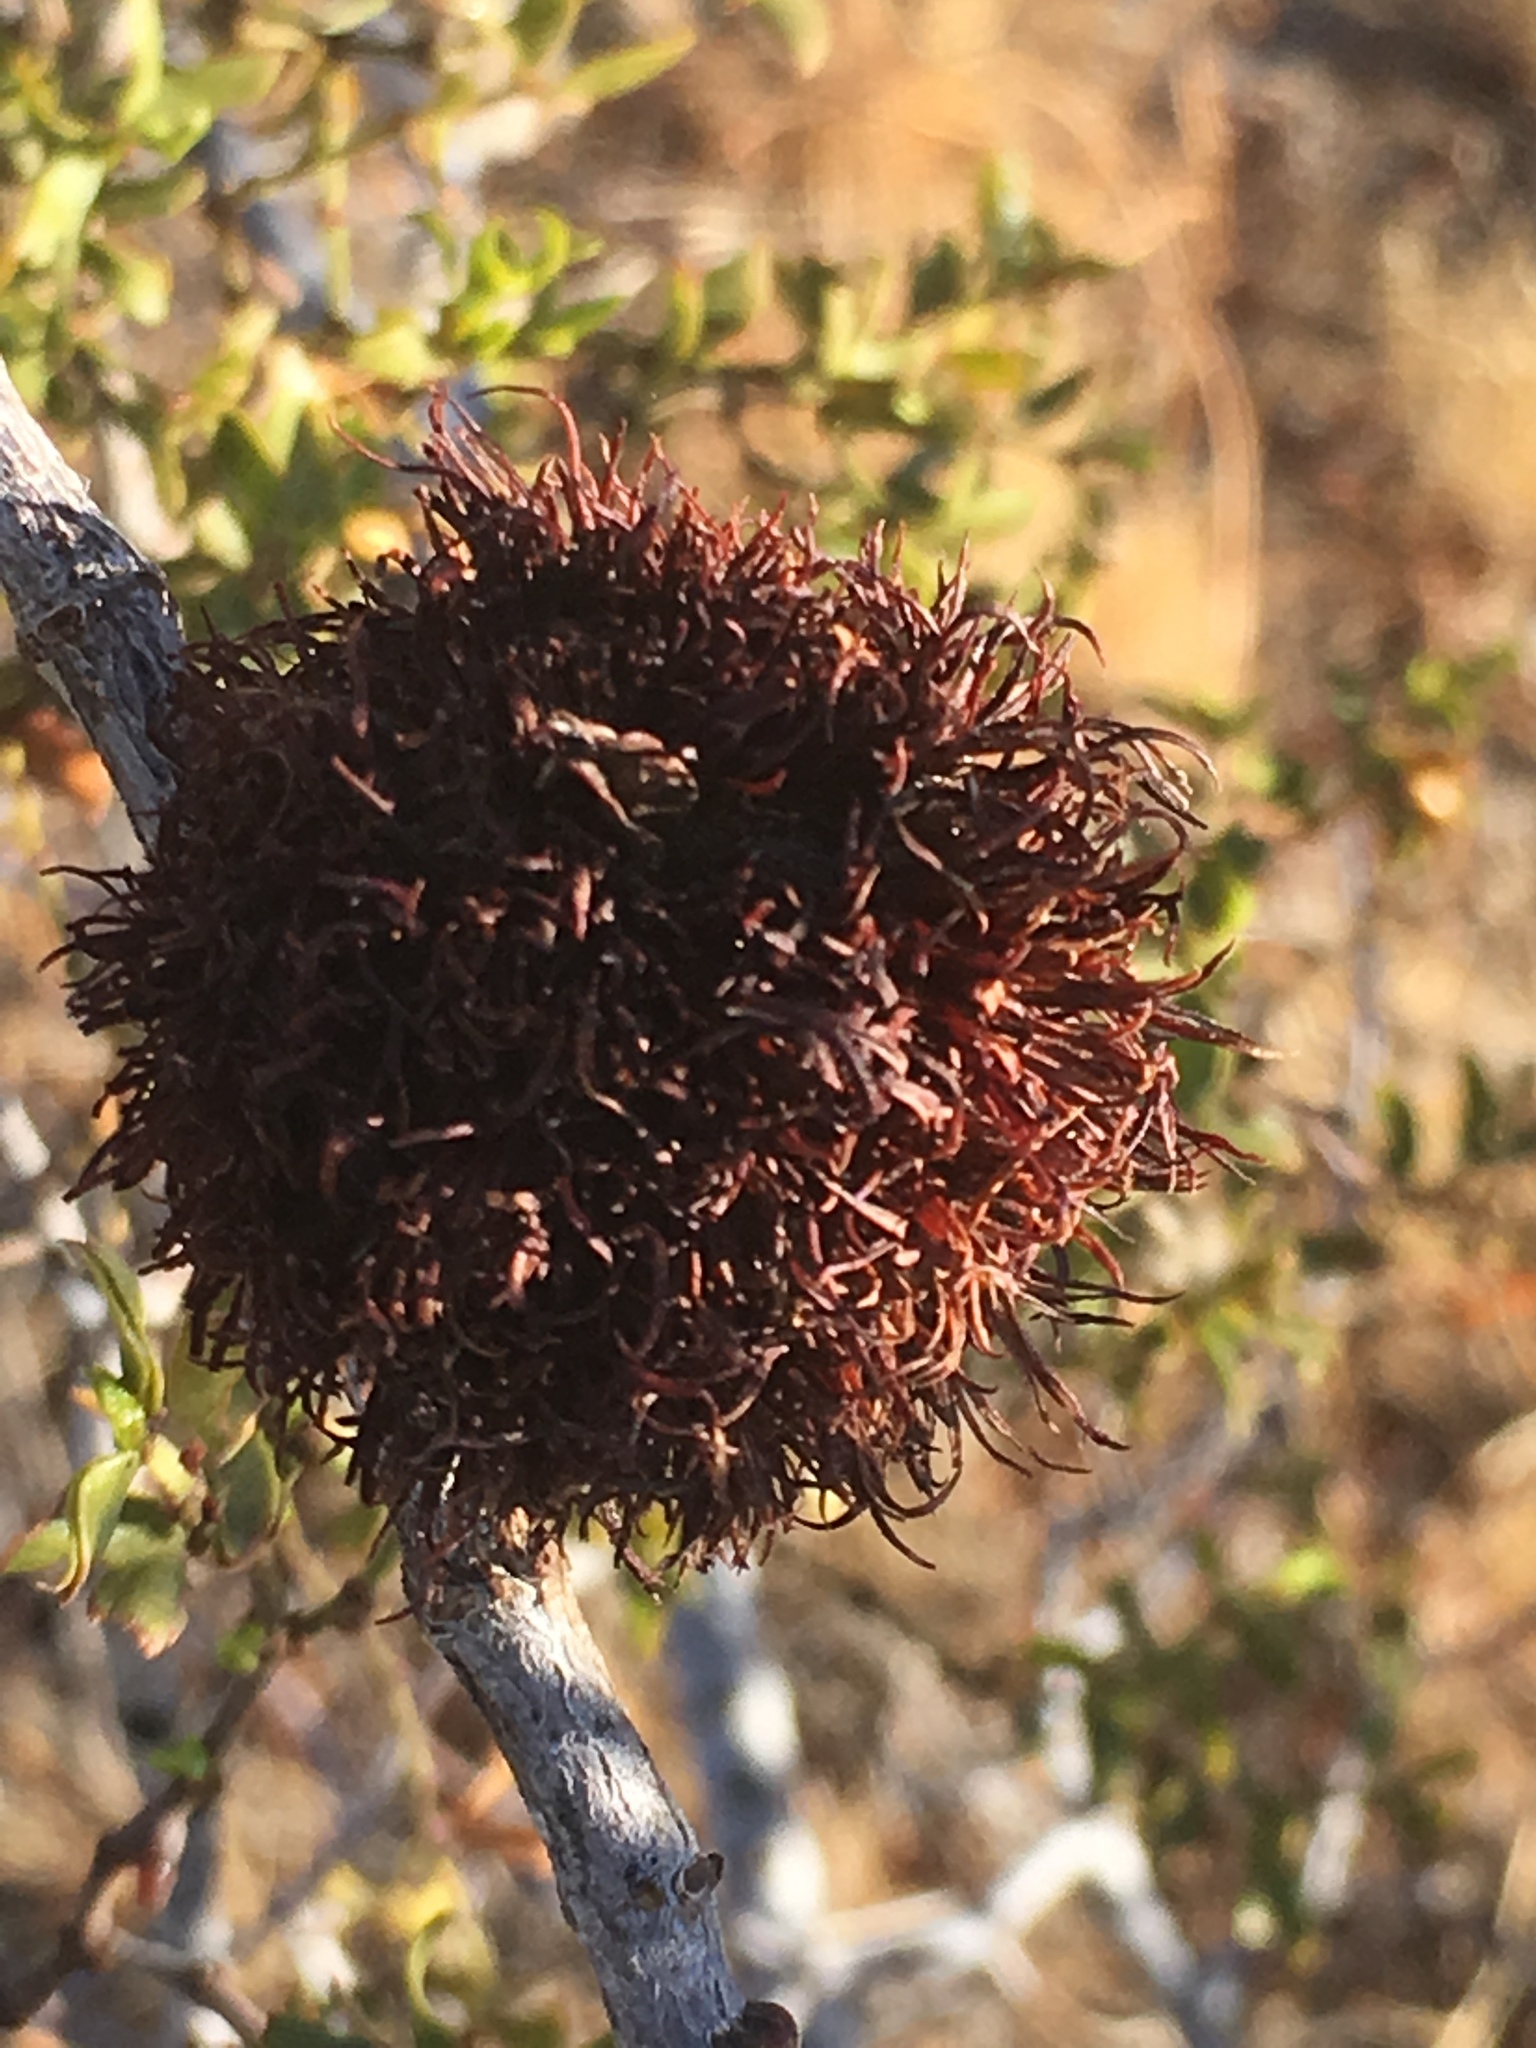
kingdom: Animalia
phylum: Arthropoda
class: Insecta
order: Diptera
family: Cecidomyiidae
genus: Asphondylia
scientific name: Asphondylia auripila
